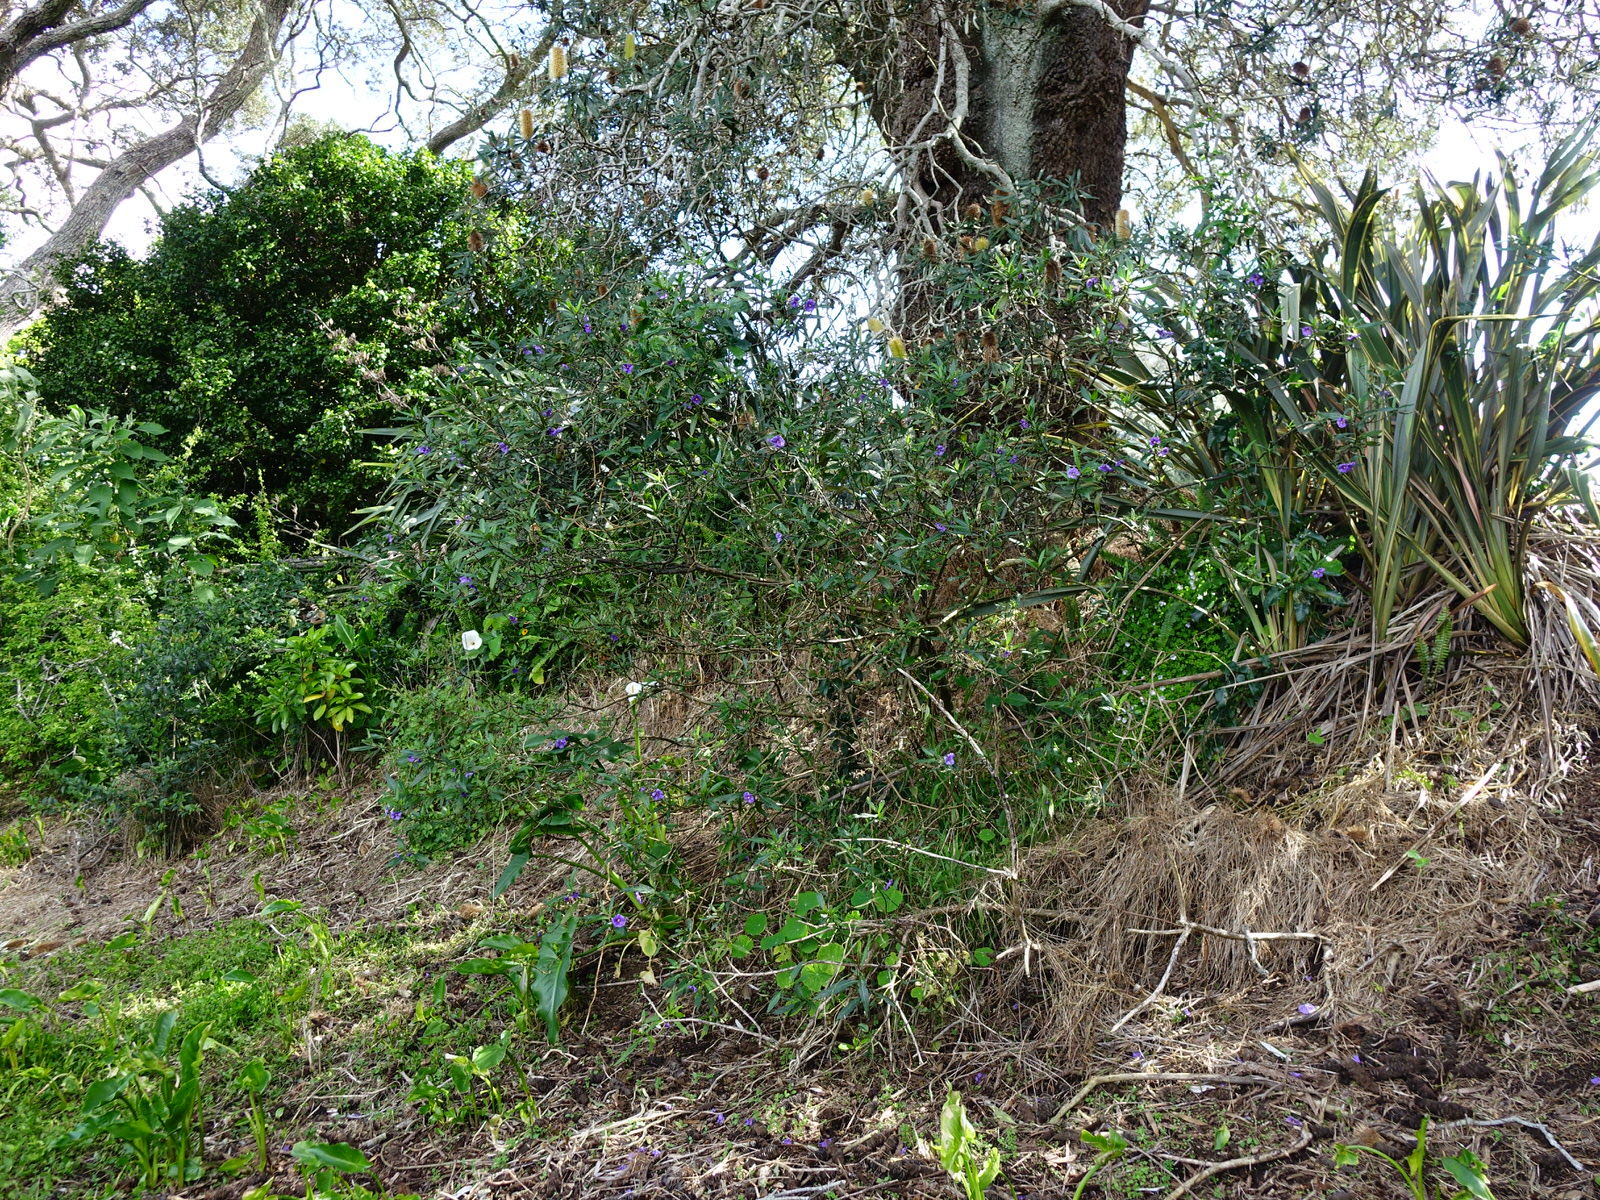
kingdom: Plantae
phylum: Tracheophyta
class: Magnoliopsida
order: Solanales
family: Solanaceae
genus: Solanum
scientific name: Solanum laciniatum
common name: Kangaroo-apple
